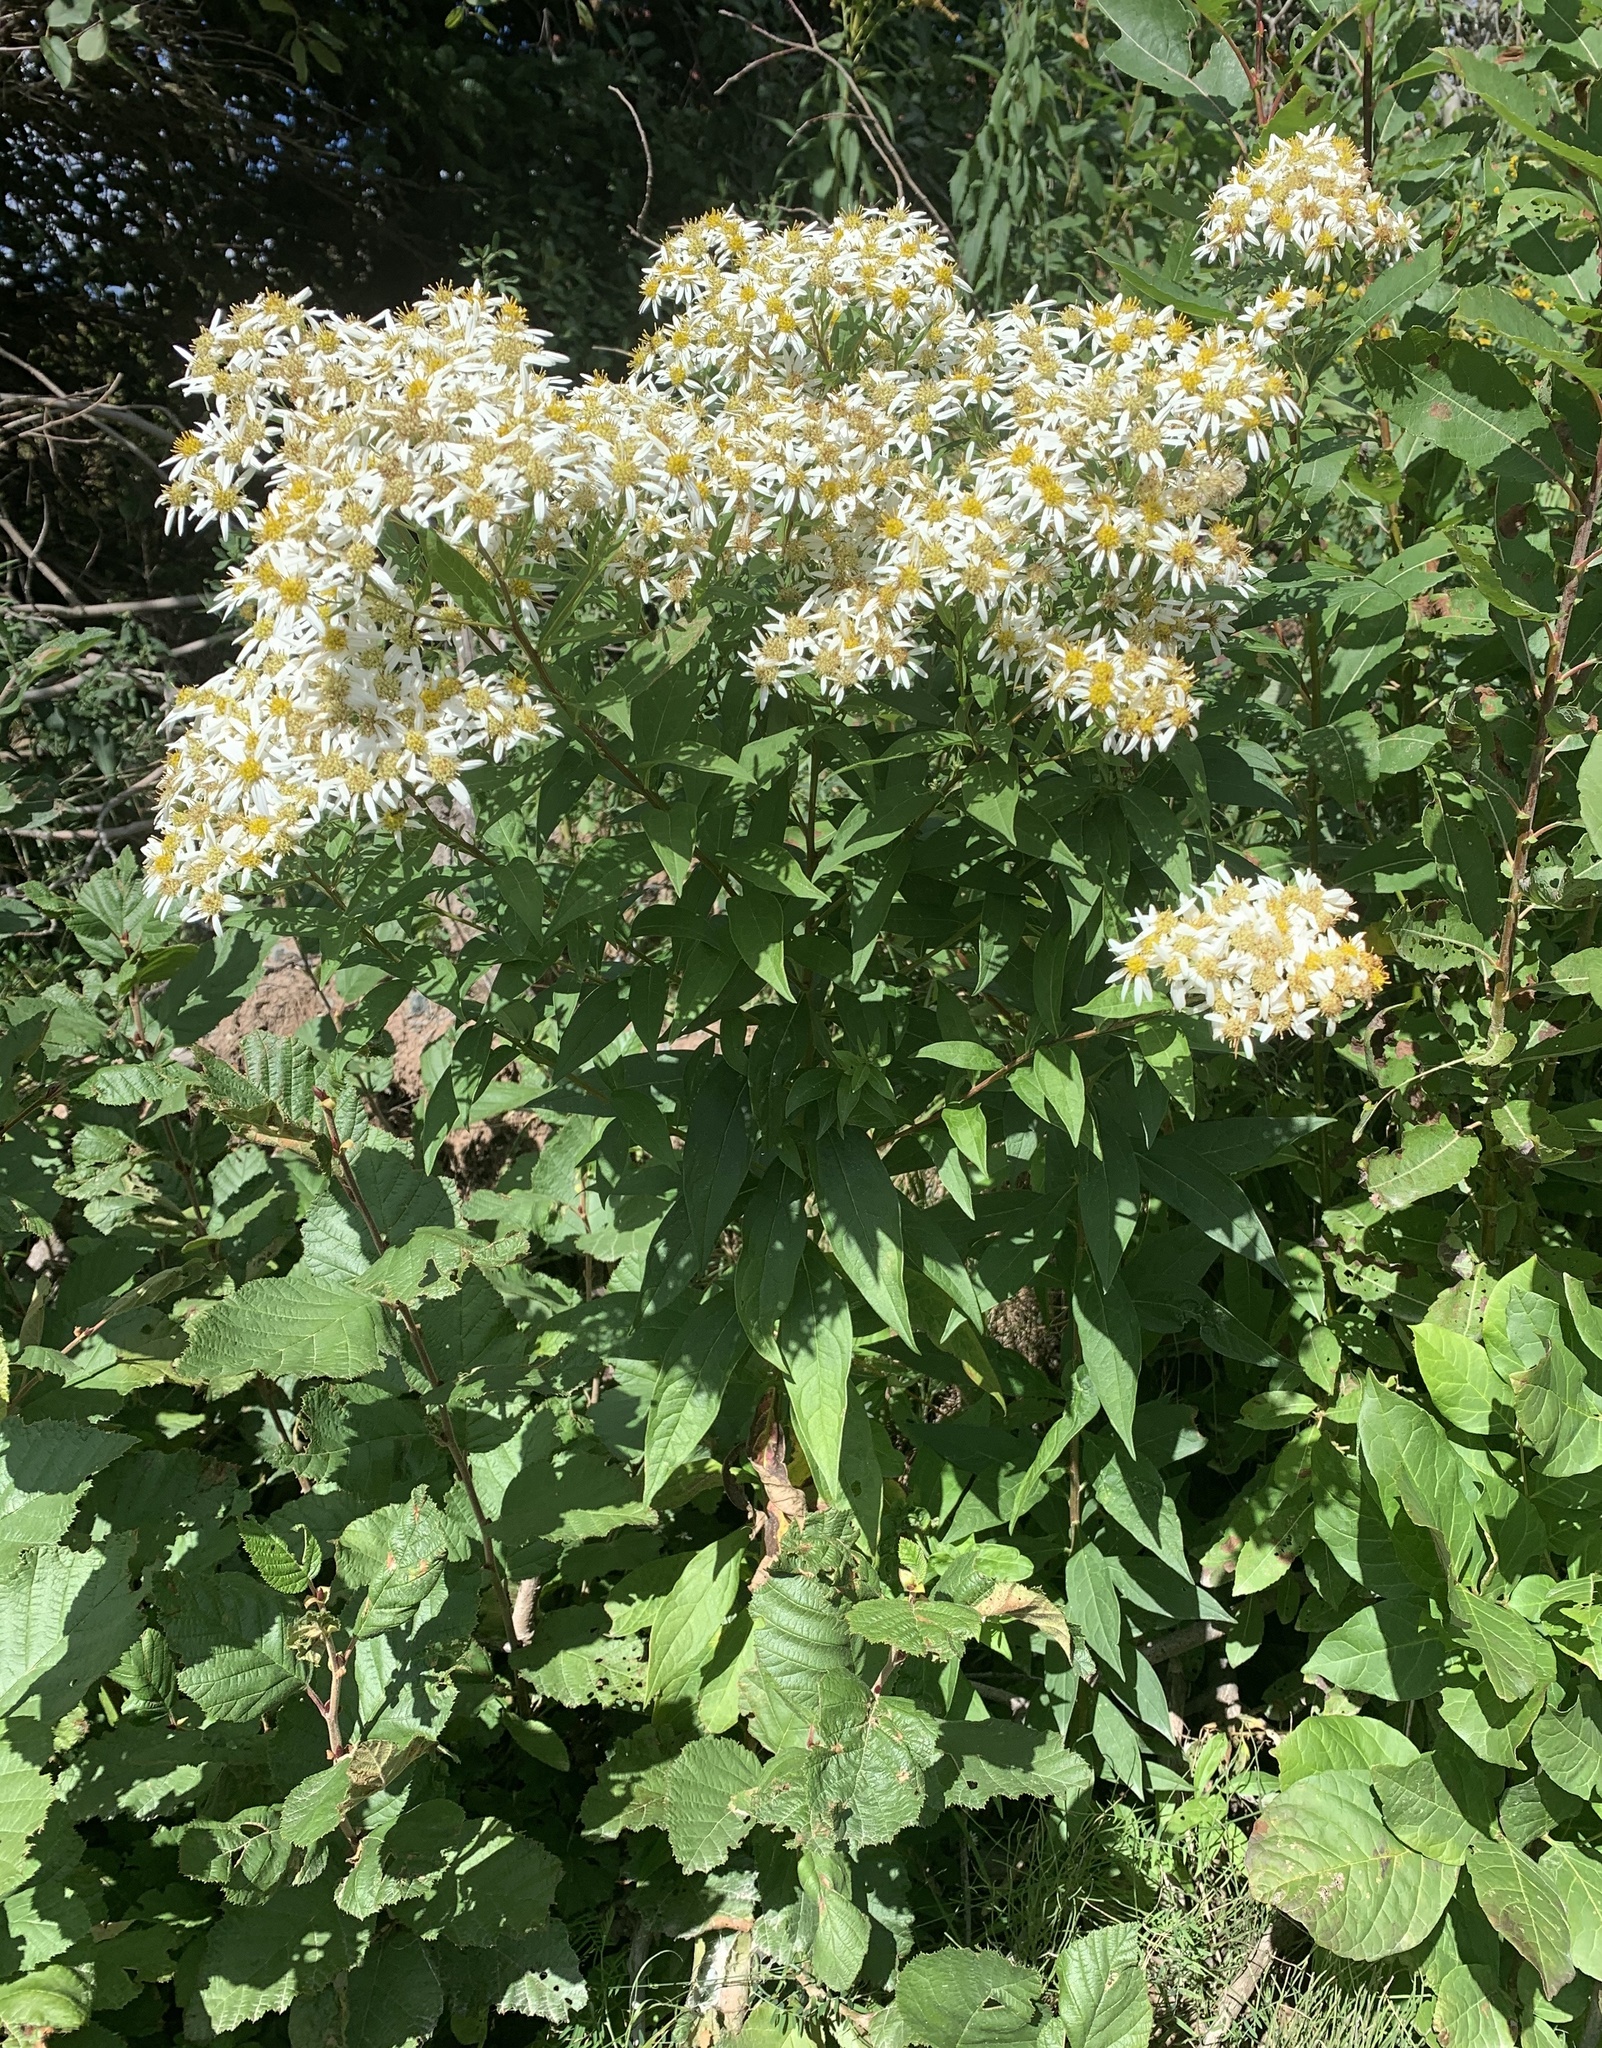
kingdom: Plantae
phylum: Tracheophyta
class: Magnoliopsida
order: Asterales
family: Asteraceae
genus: Doellingeria
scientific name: Doellingeria umbellata
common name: Flat-top white aster
